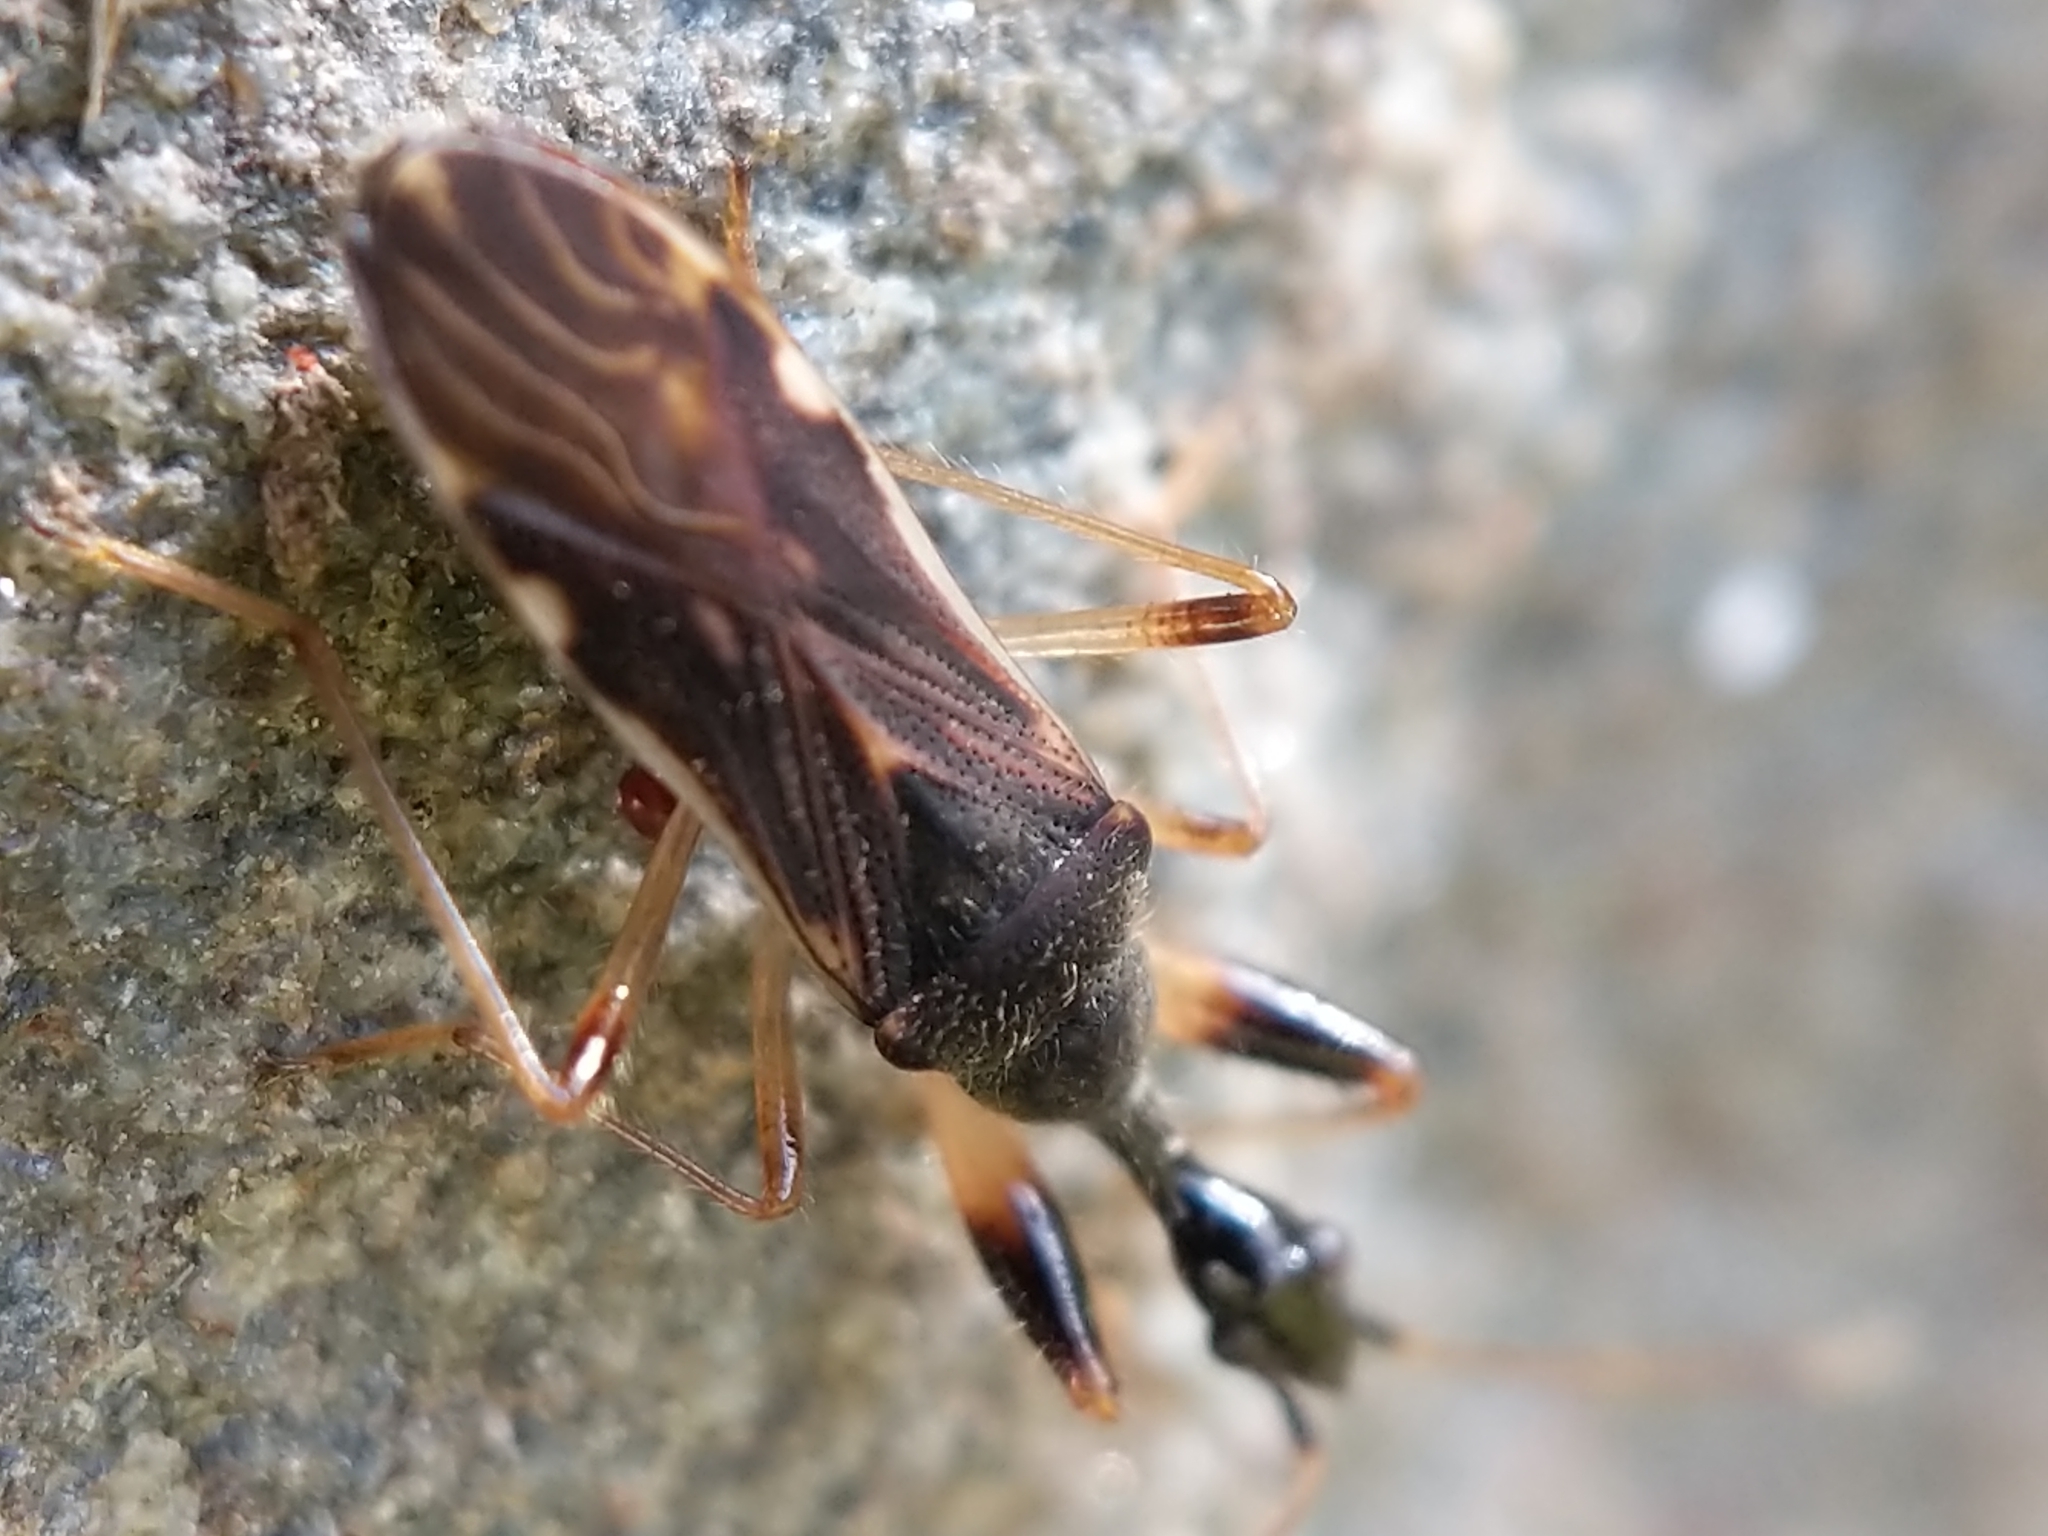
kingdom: Animalia
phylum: Arthropoda
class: Insecta
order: Hemiptera
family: Rhyparochromidae
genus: Myodocha
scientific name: Myodocha serripes
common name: Long-necked seed bug
